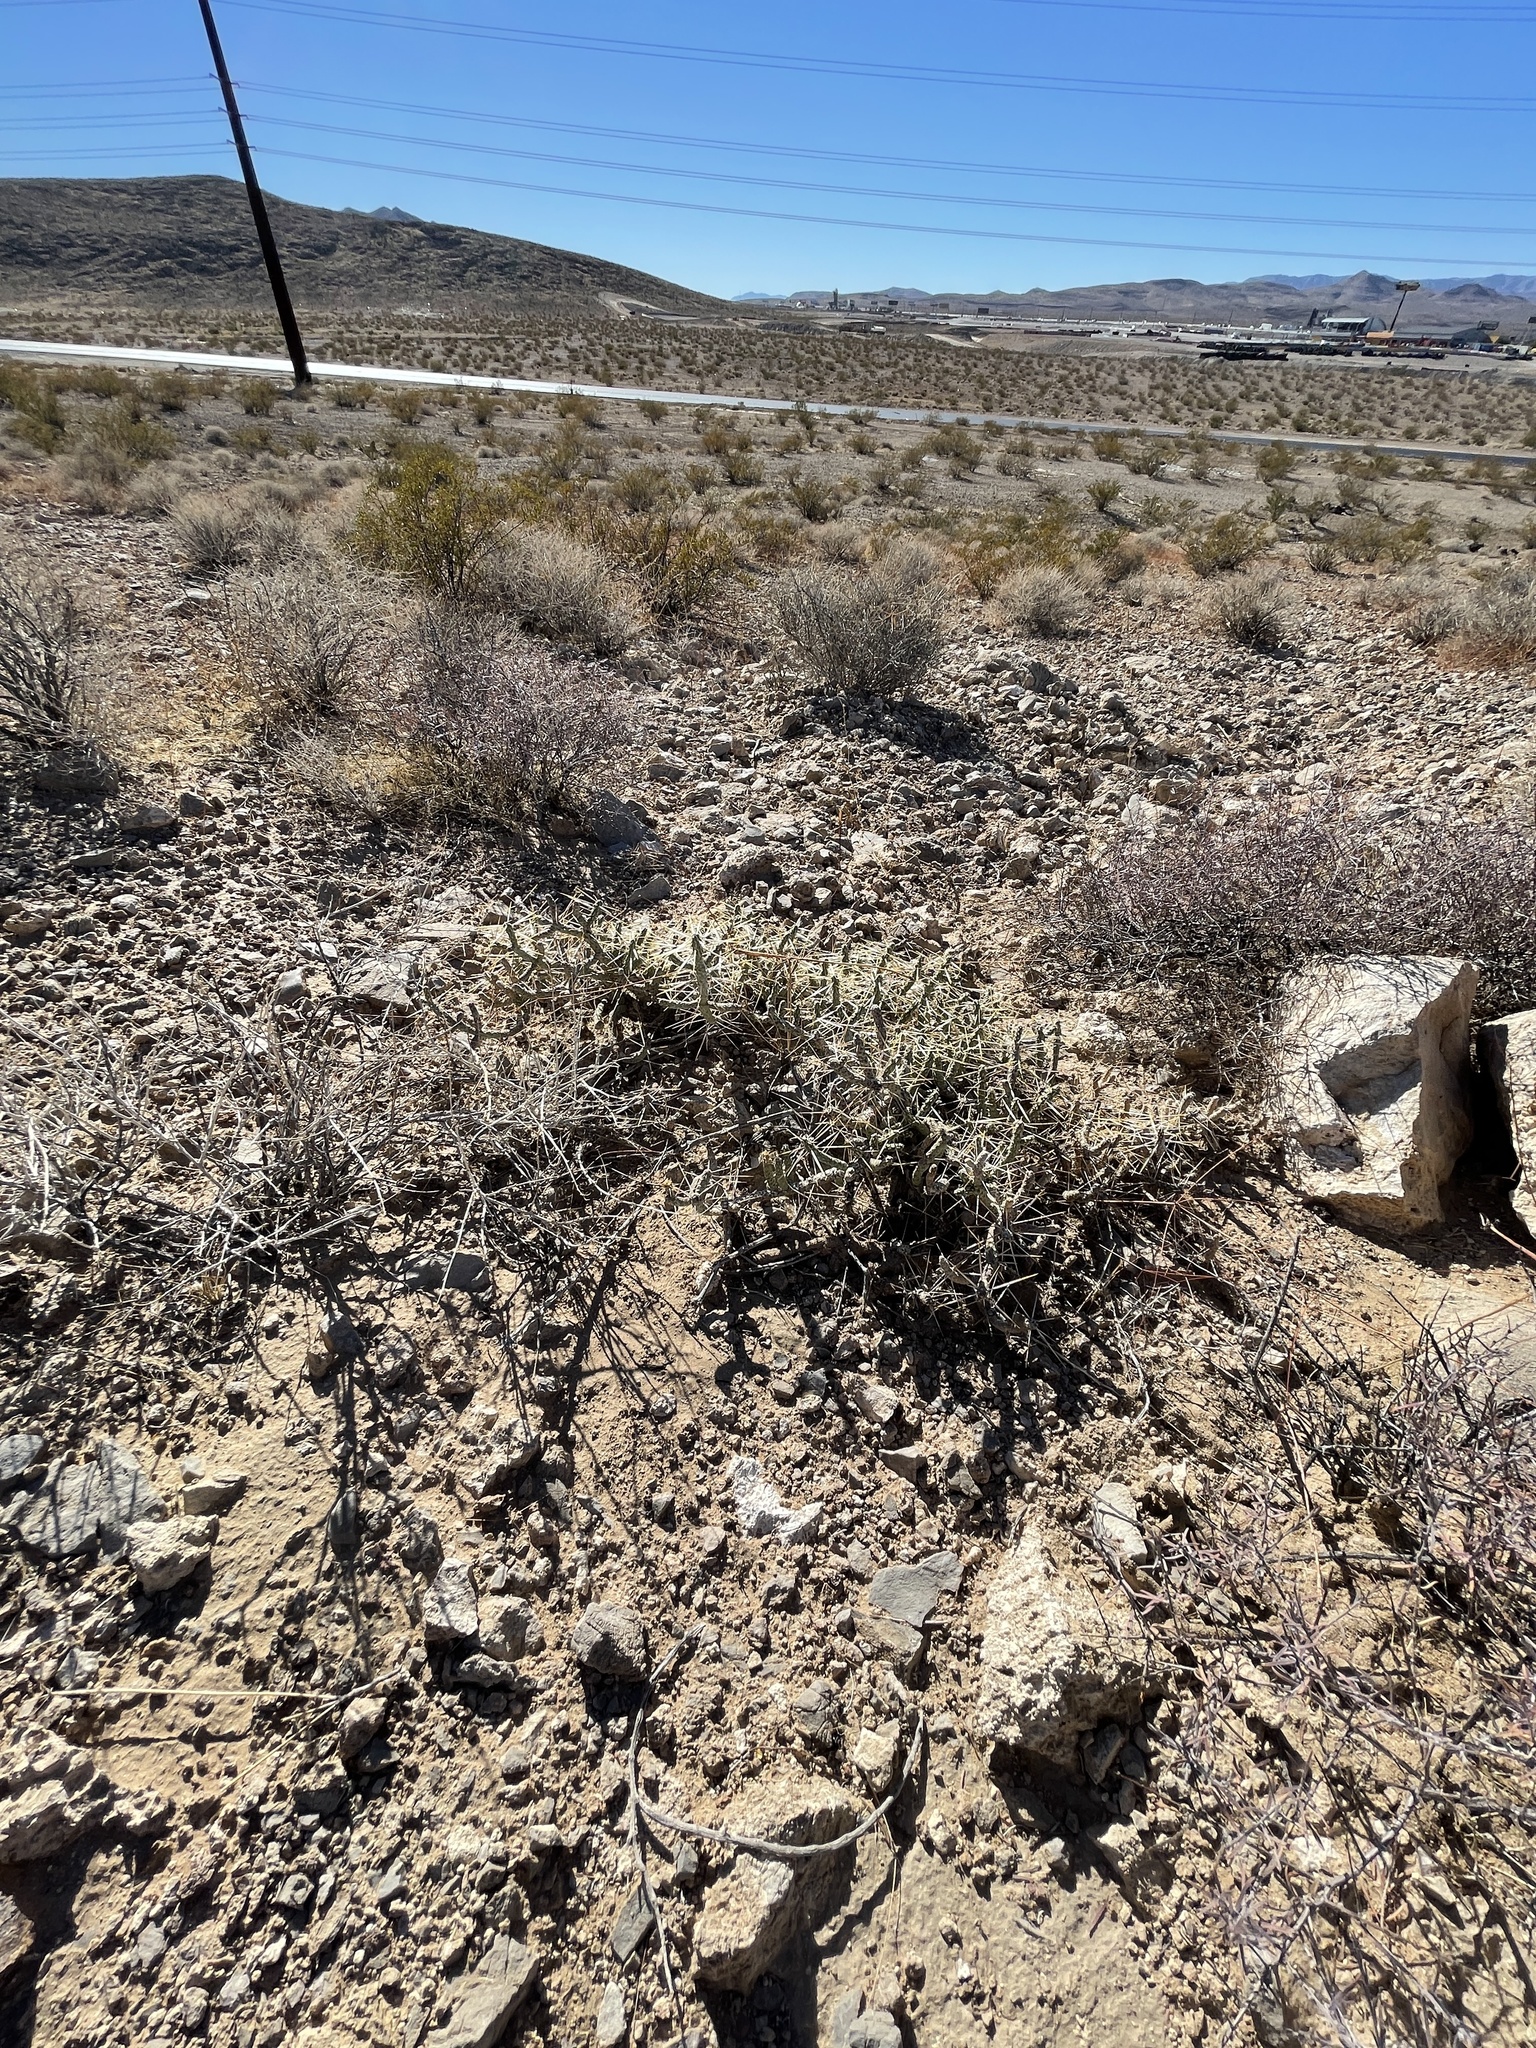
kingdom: Plantae
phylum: Tracheophyta
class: Magnoliopsida
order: Caryophyllales
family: Cactaceae
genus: Cylindropuntia
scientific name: Cylindropuntia ramosissima
